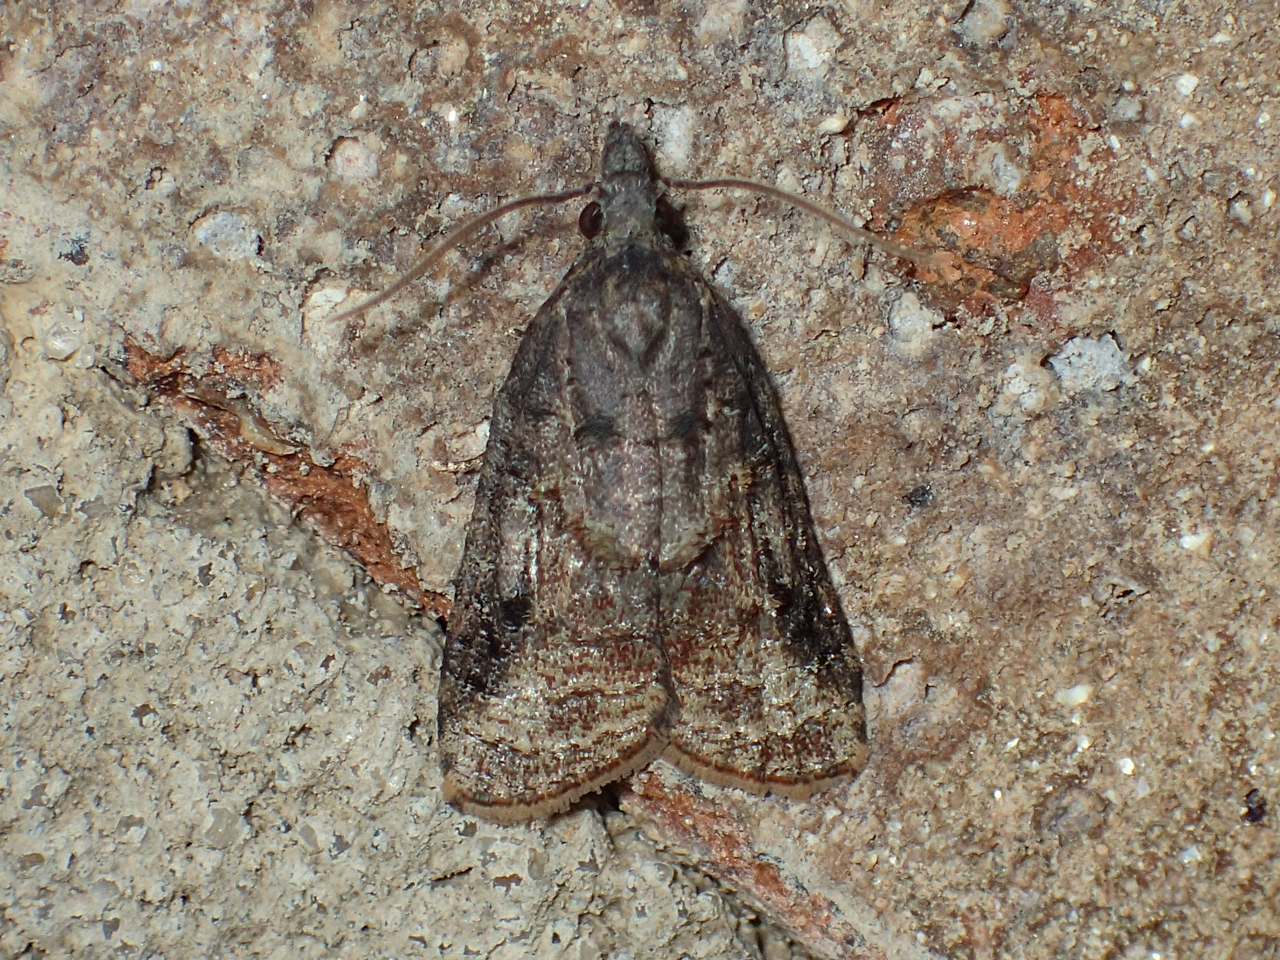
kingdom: Animalia
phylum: Arthropoda
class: Insecta
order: Lepidoptera
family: Tortricidae
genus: Platynota
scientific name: Platynota idaeusalis
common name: Tufted apple bud moth
